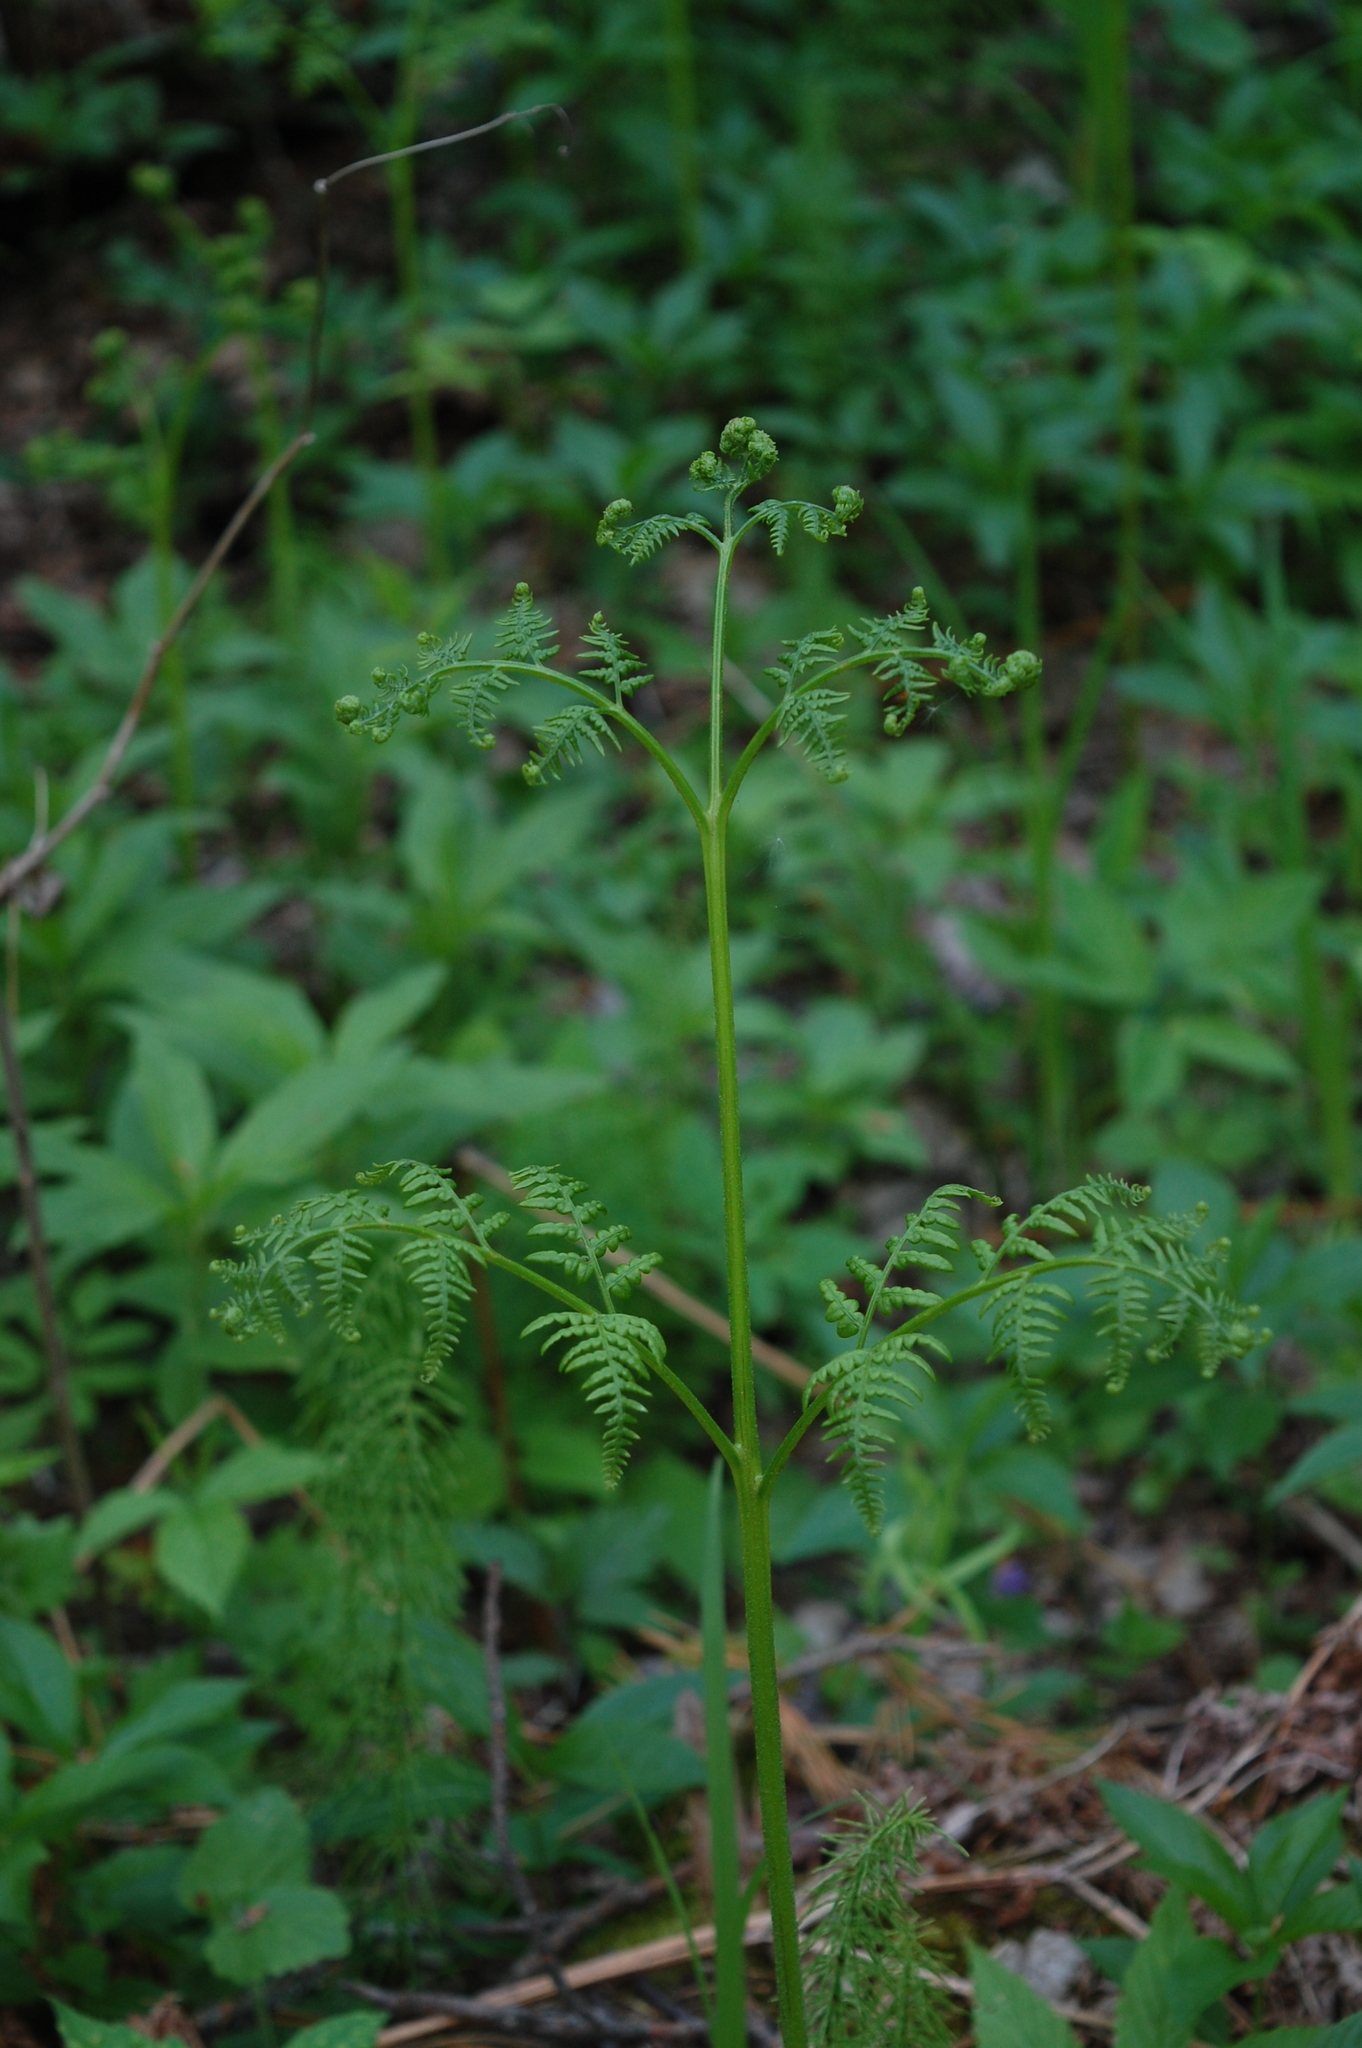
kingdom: Plantae
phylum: Tracheophyta
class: Polypodiopsida
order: Polypodiales
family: Dennstaedtiaceae
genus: Pteridium
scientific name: Pteridium aquilinum
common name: Bracken
